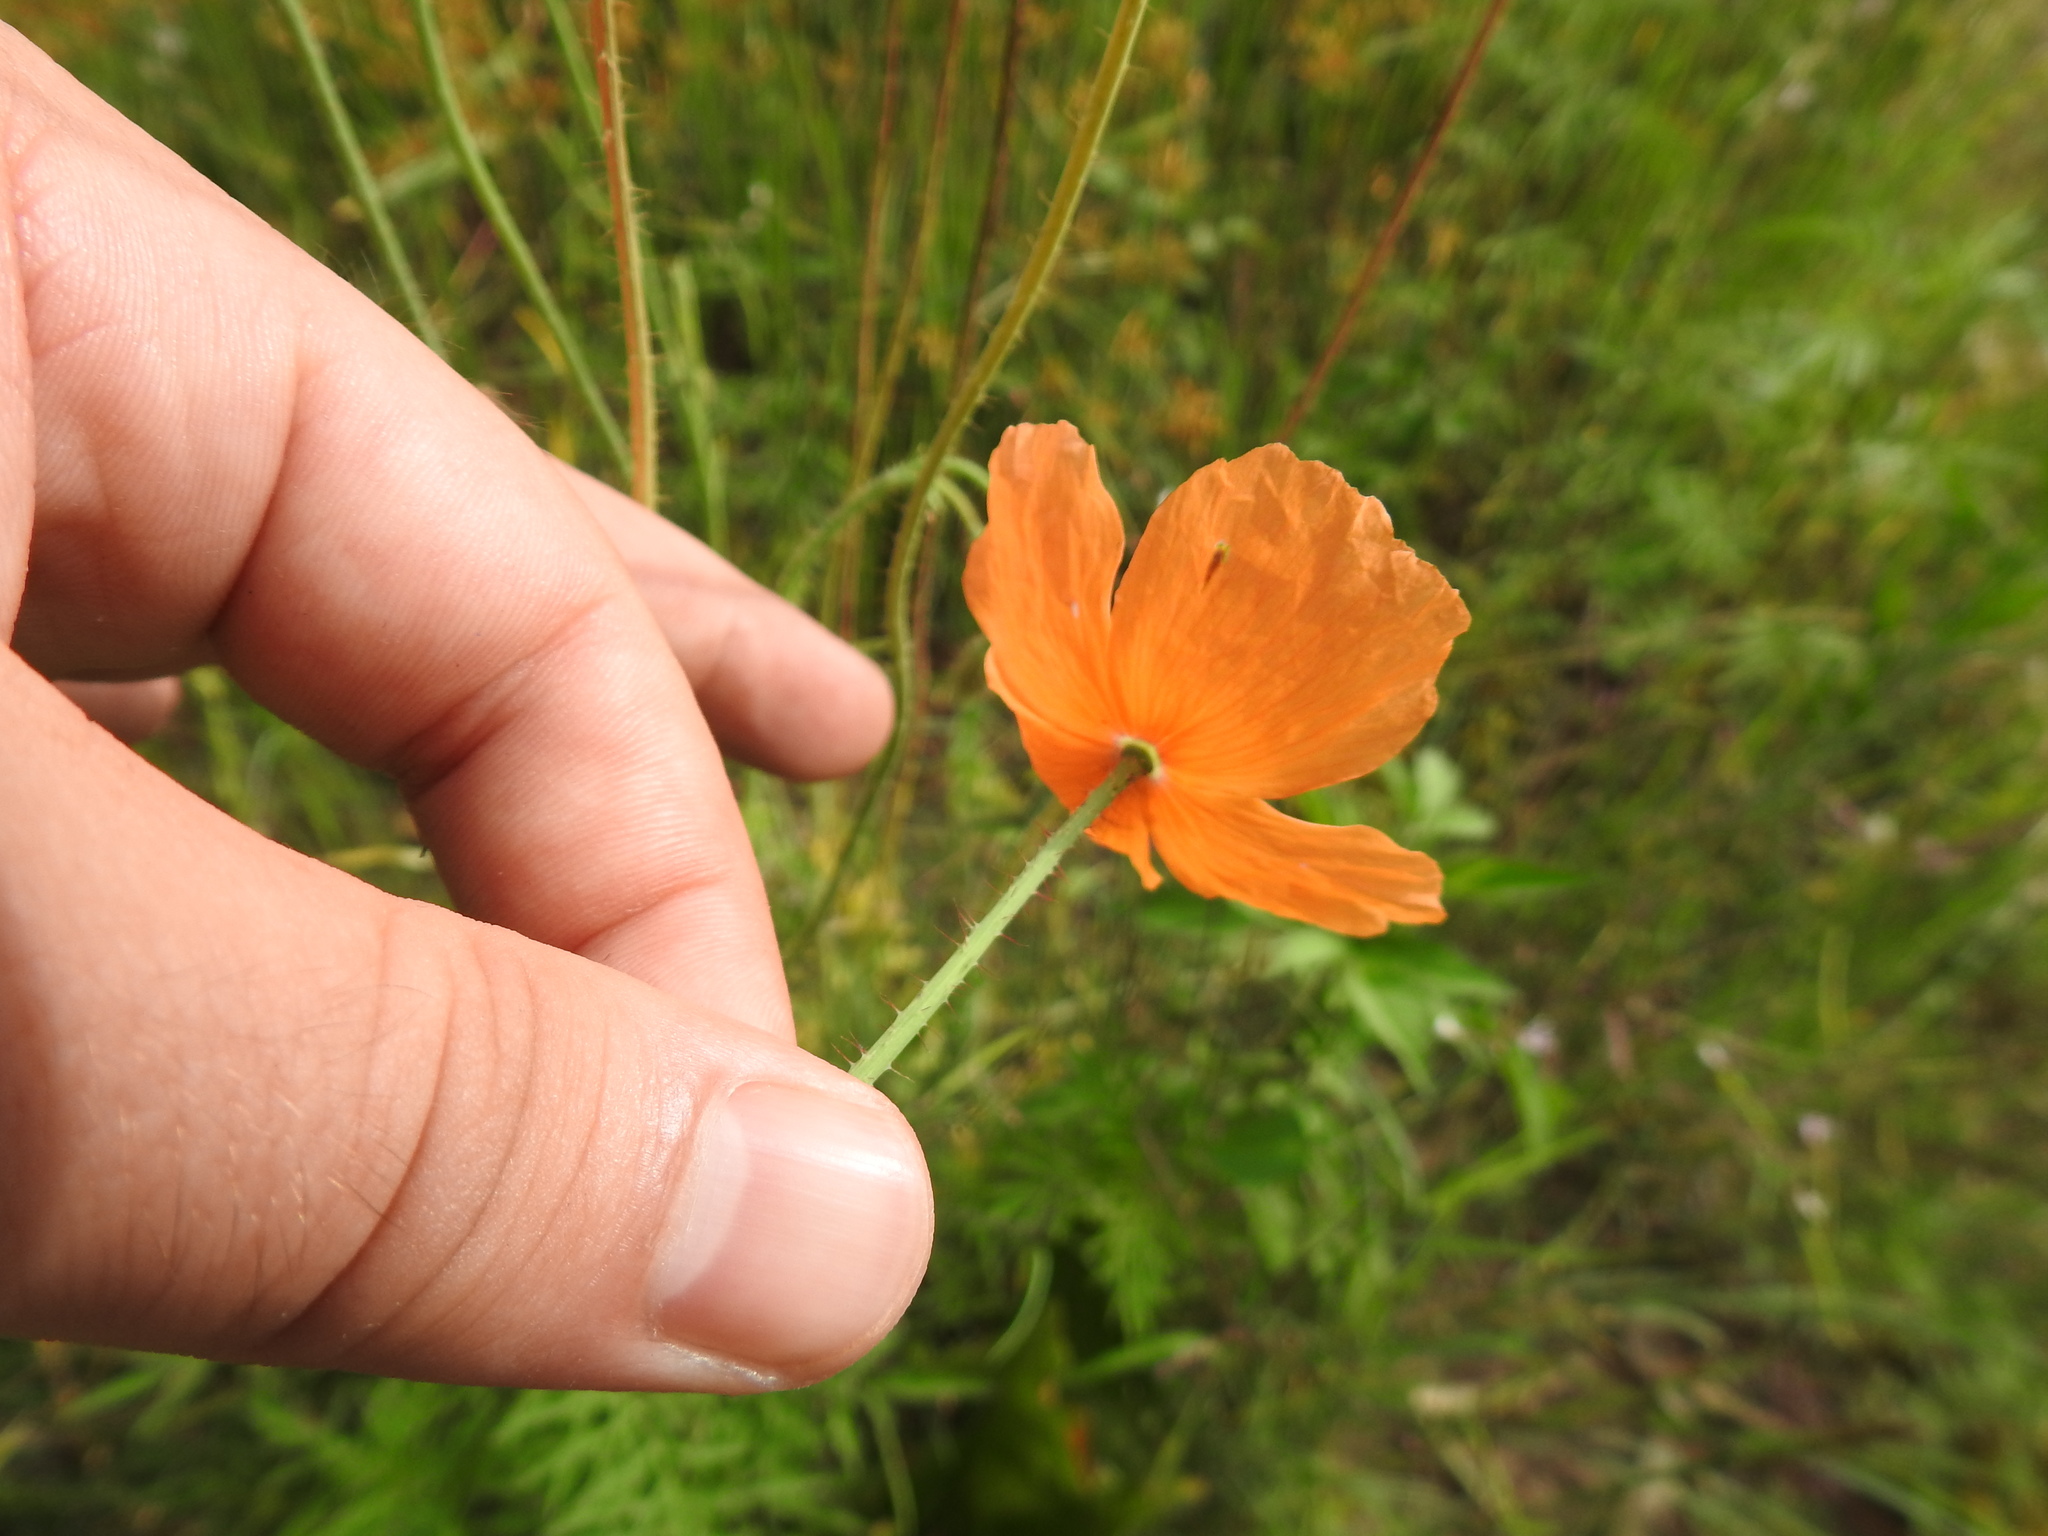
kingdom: Plantae
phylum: Tracheophyta
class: Magnoliopsida
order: Ranunculales
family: Papaveraceae
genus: Papaver
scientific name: Papaver aculeatum
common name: Bristle poppy
